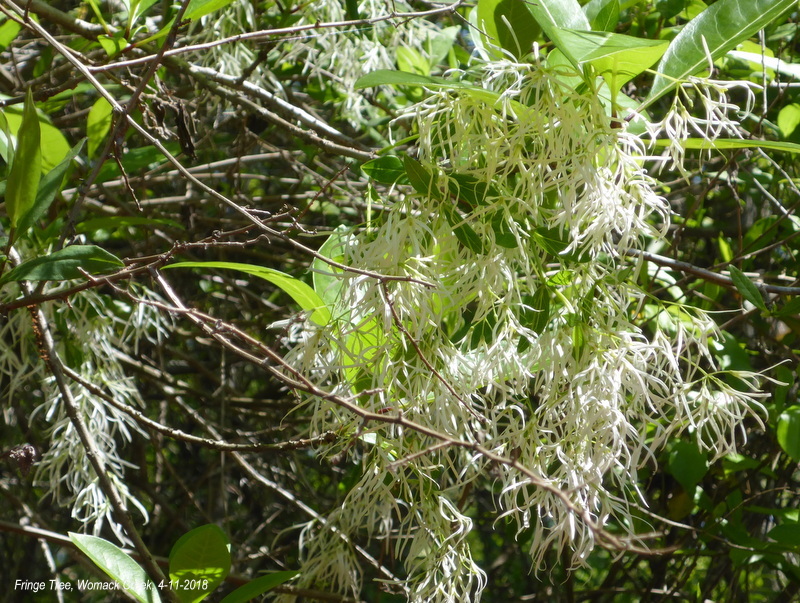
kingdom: Plantae
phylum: Tracheophyta
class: Magnoliopsida
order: Lamiales
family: Oleaceae
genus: Chionanthus
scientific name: Chionanthus virginicus
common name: American fringetree
